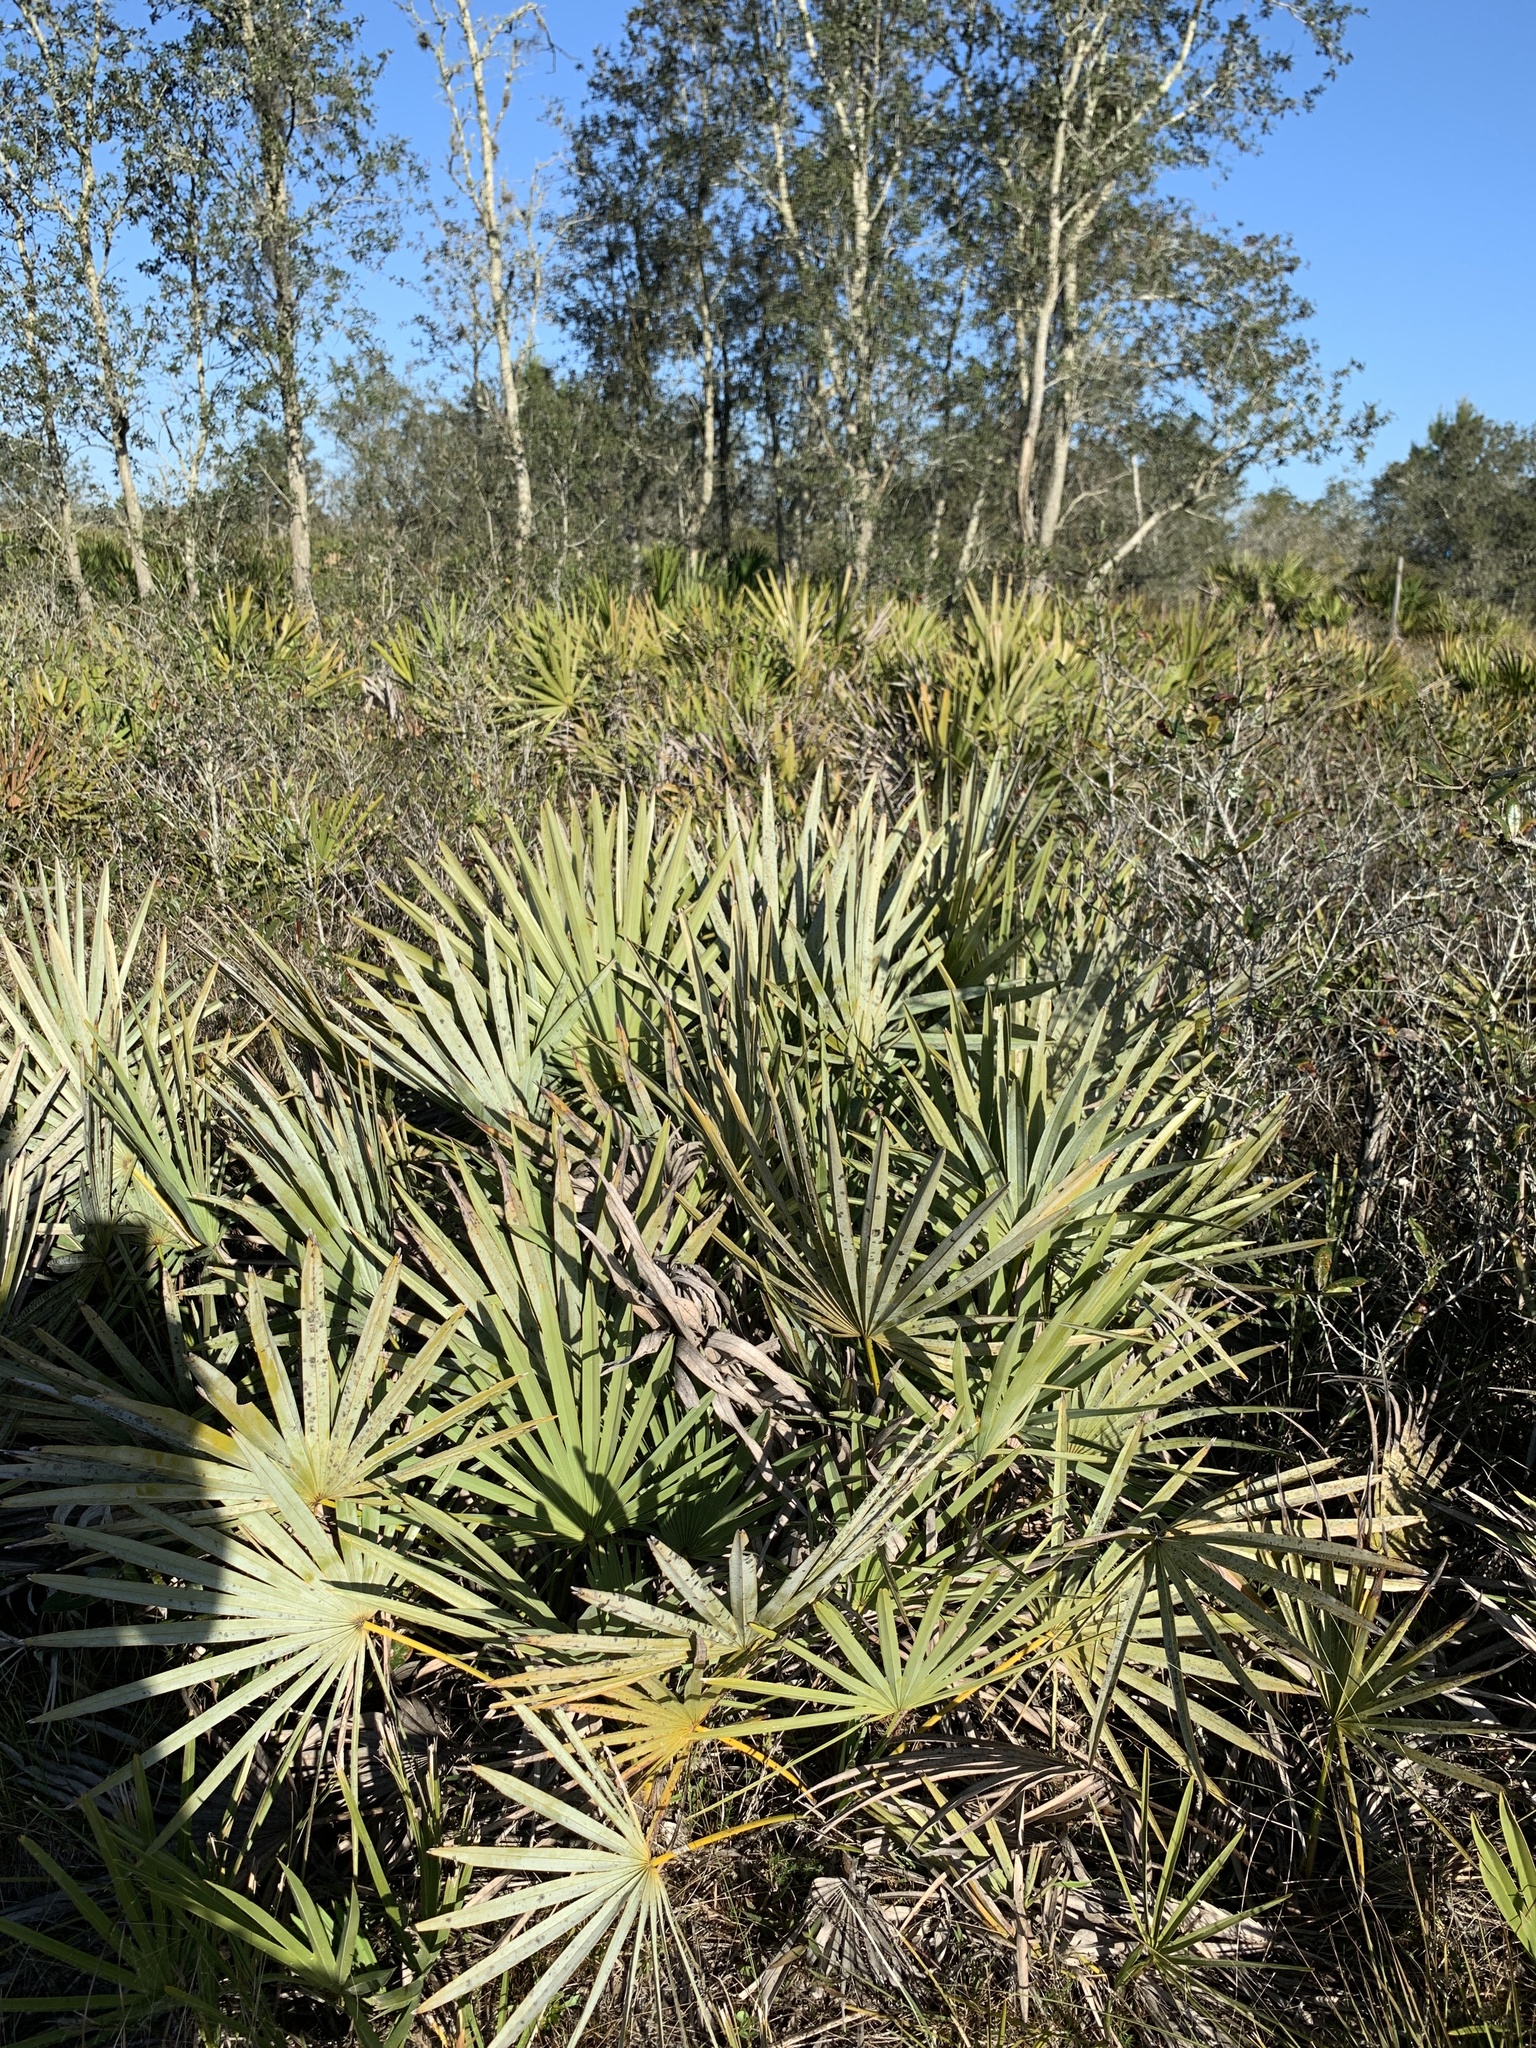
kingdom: Plantae
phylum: Tracheophyta
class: Liliopsida
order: Arecales
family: Arecaceae
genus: Serenoa
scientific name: Serenoa repens
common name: Saw-palmetto
